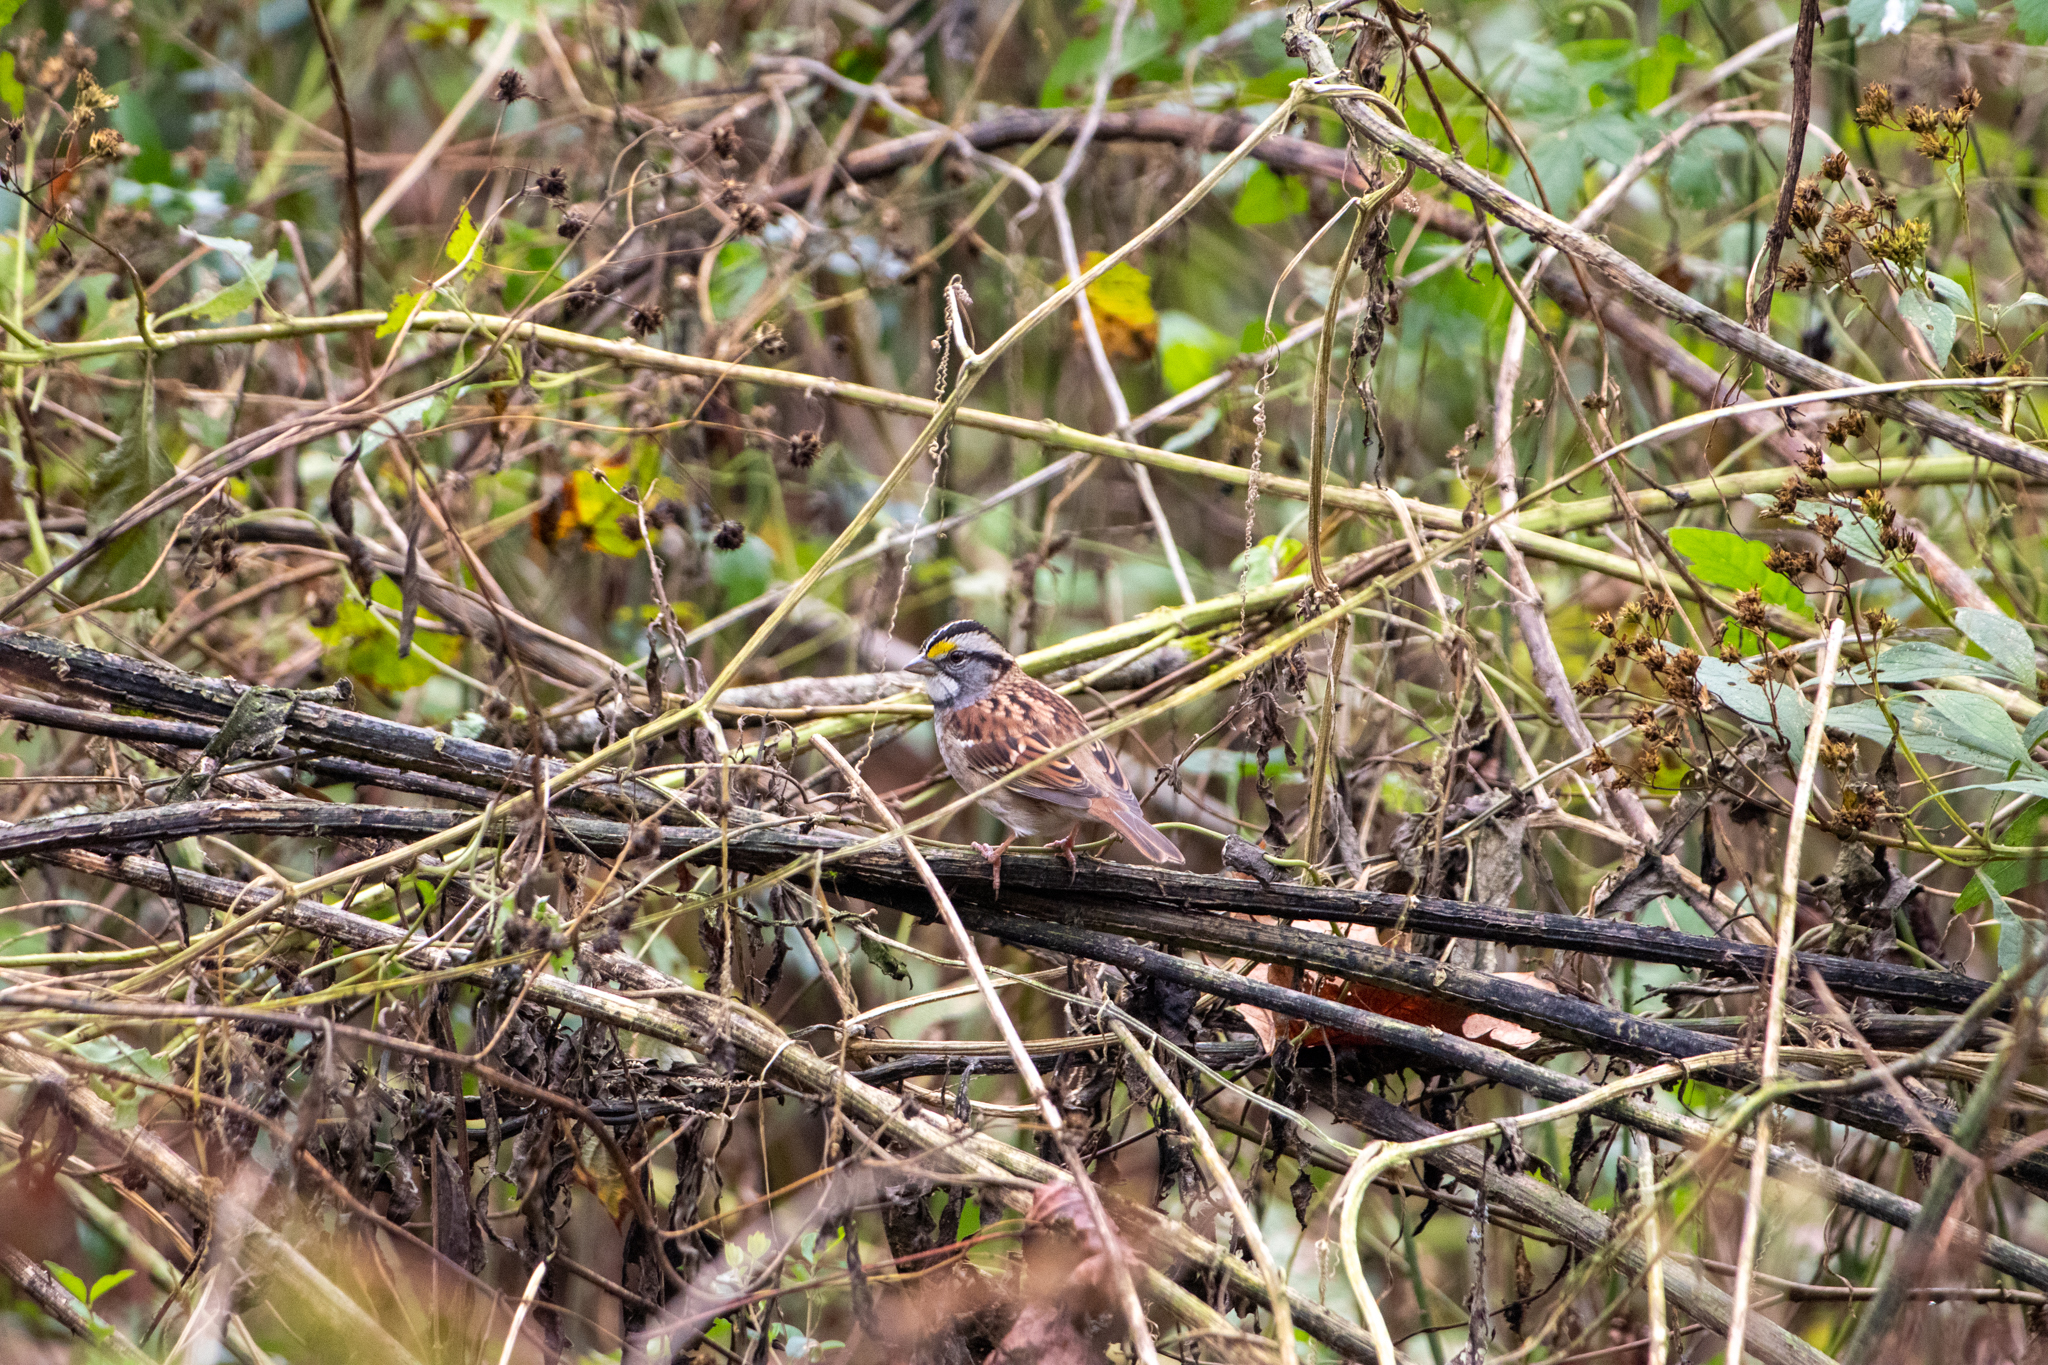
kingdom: Animalia
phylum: Chordata
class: Aves
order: Passeriformes
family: Passerellidae
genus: Zonotrichia
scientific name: Zonotrichia albicollis
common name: White-throated sparrow
